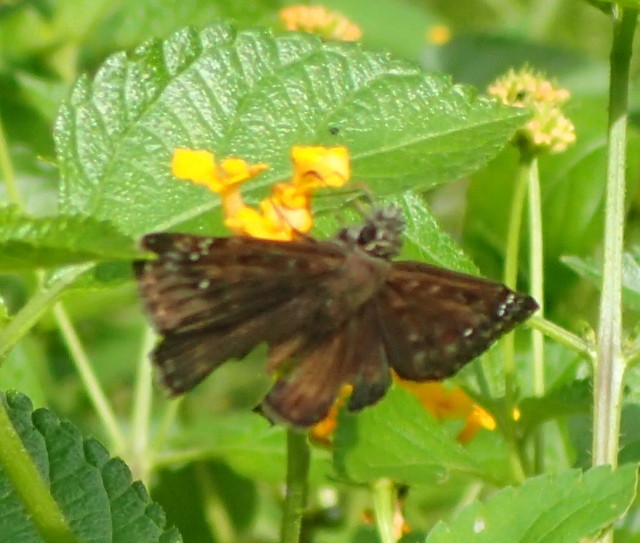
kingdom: Animalia
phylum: Arthropoda
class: Insecta
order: Lepidoptera
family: Hesperiidae
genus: Erynnis
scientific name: Erynnis horatius
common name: Horace's duskywing
